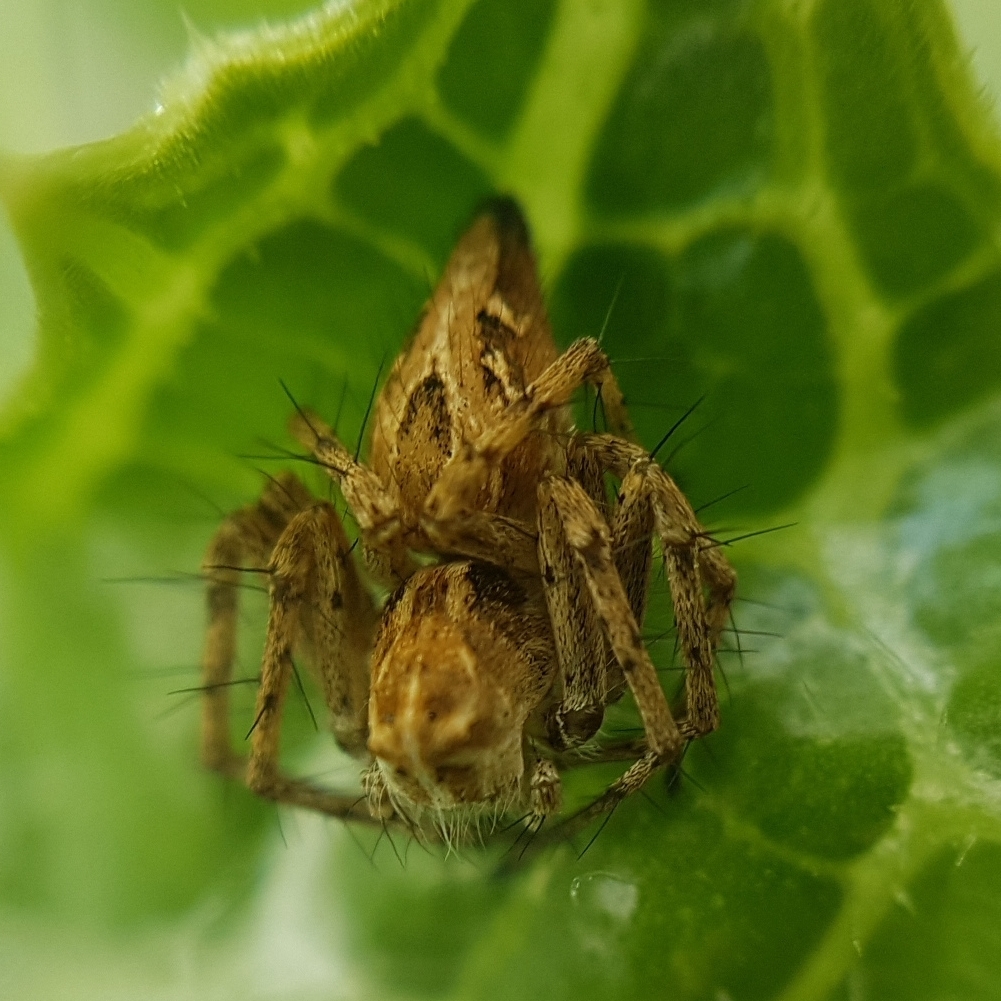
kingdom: Animalia
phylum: Arthropoda
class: Arachnida
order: Araneae
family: Oxyopidae
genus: Oxyopes
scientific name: Oxyopes
